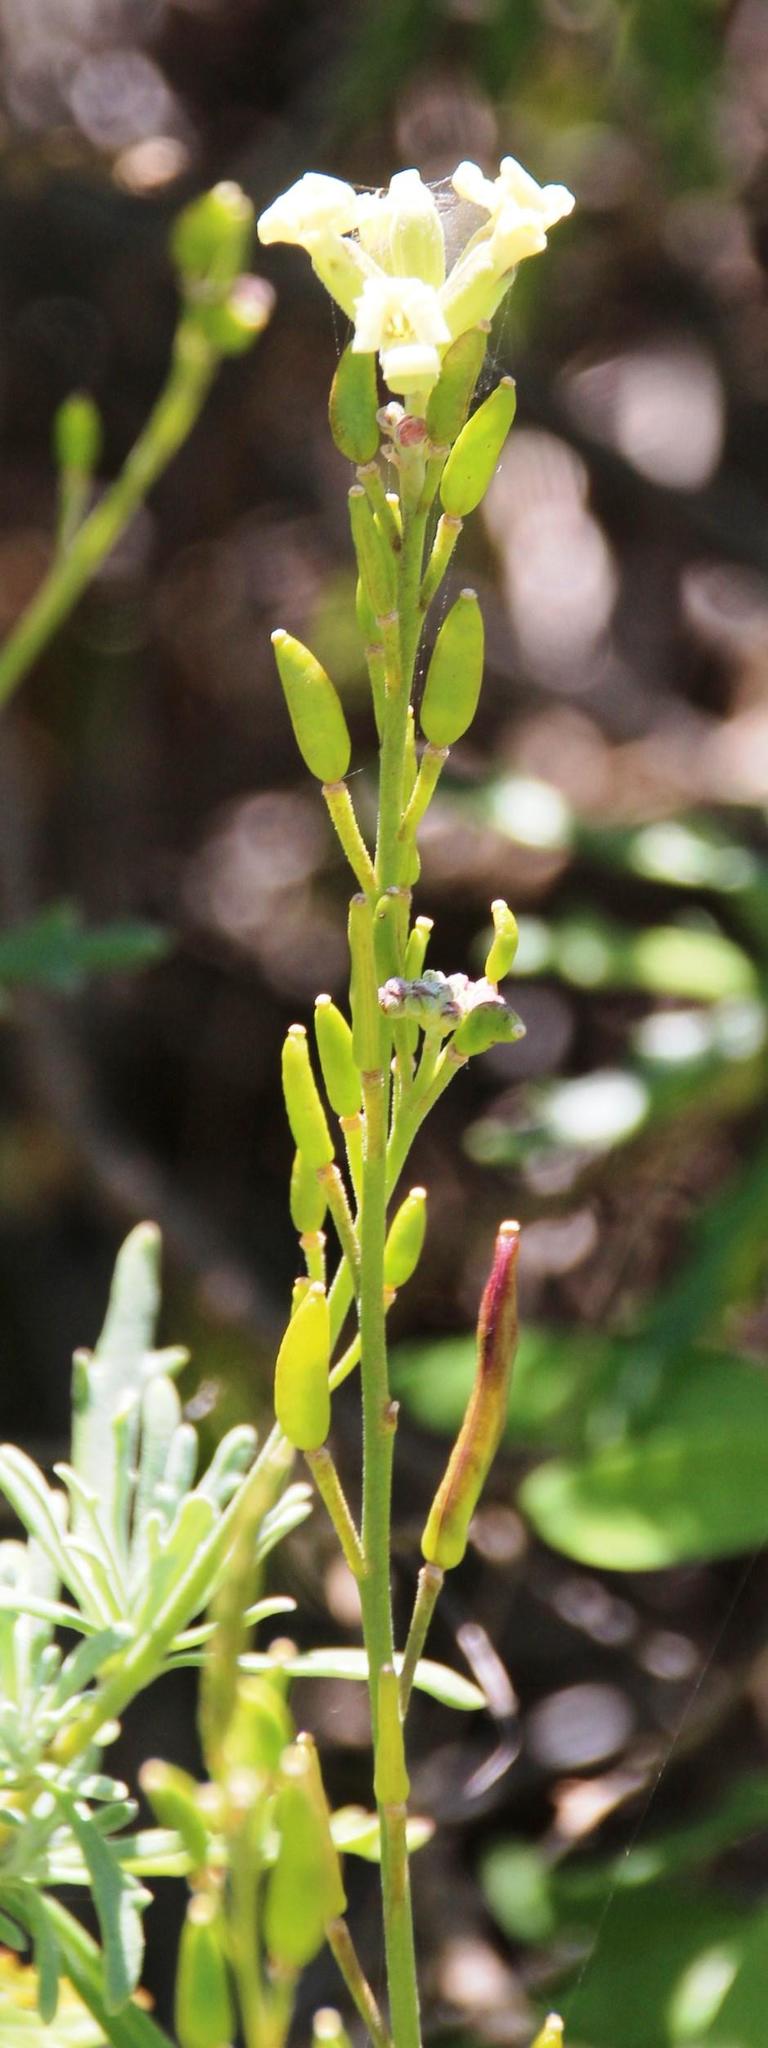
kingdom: Plantae
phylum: Tracheophyta
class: Magnoliopsida
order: Brassicales
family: Brassicaceae
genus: Mathewsia
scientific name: Mathewsia foliosa
